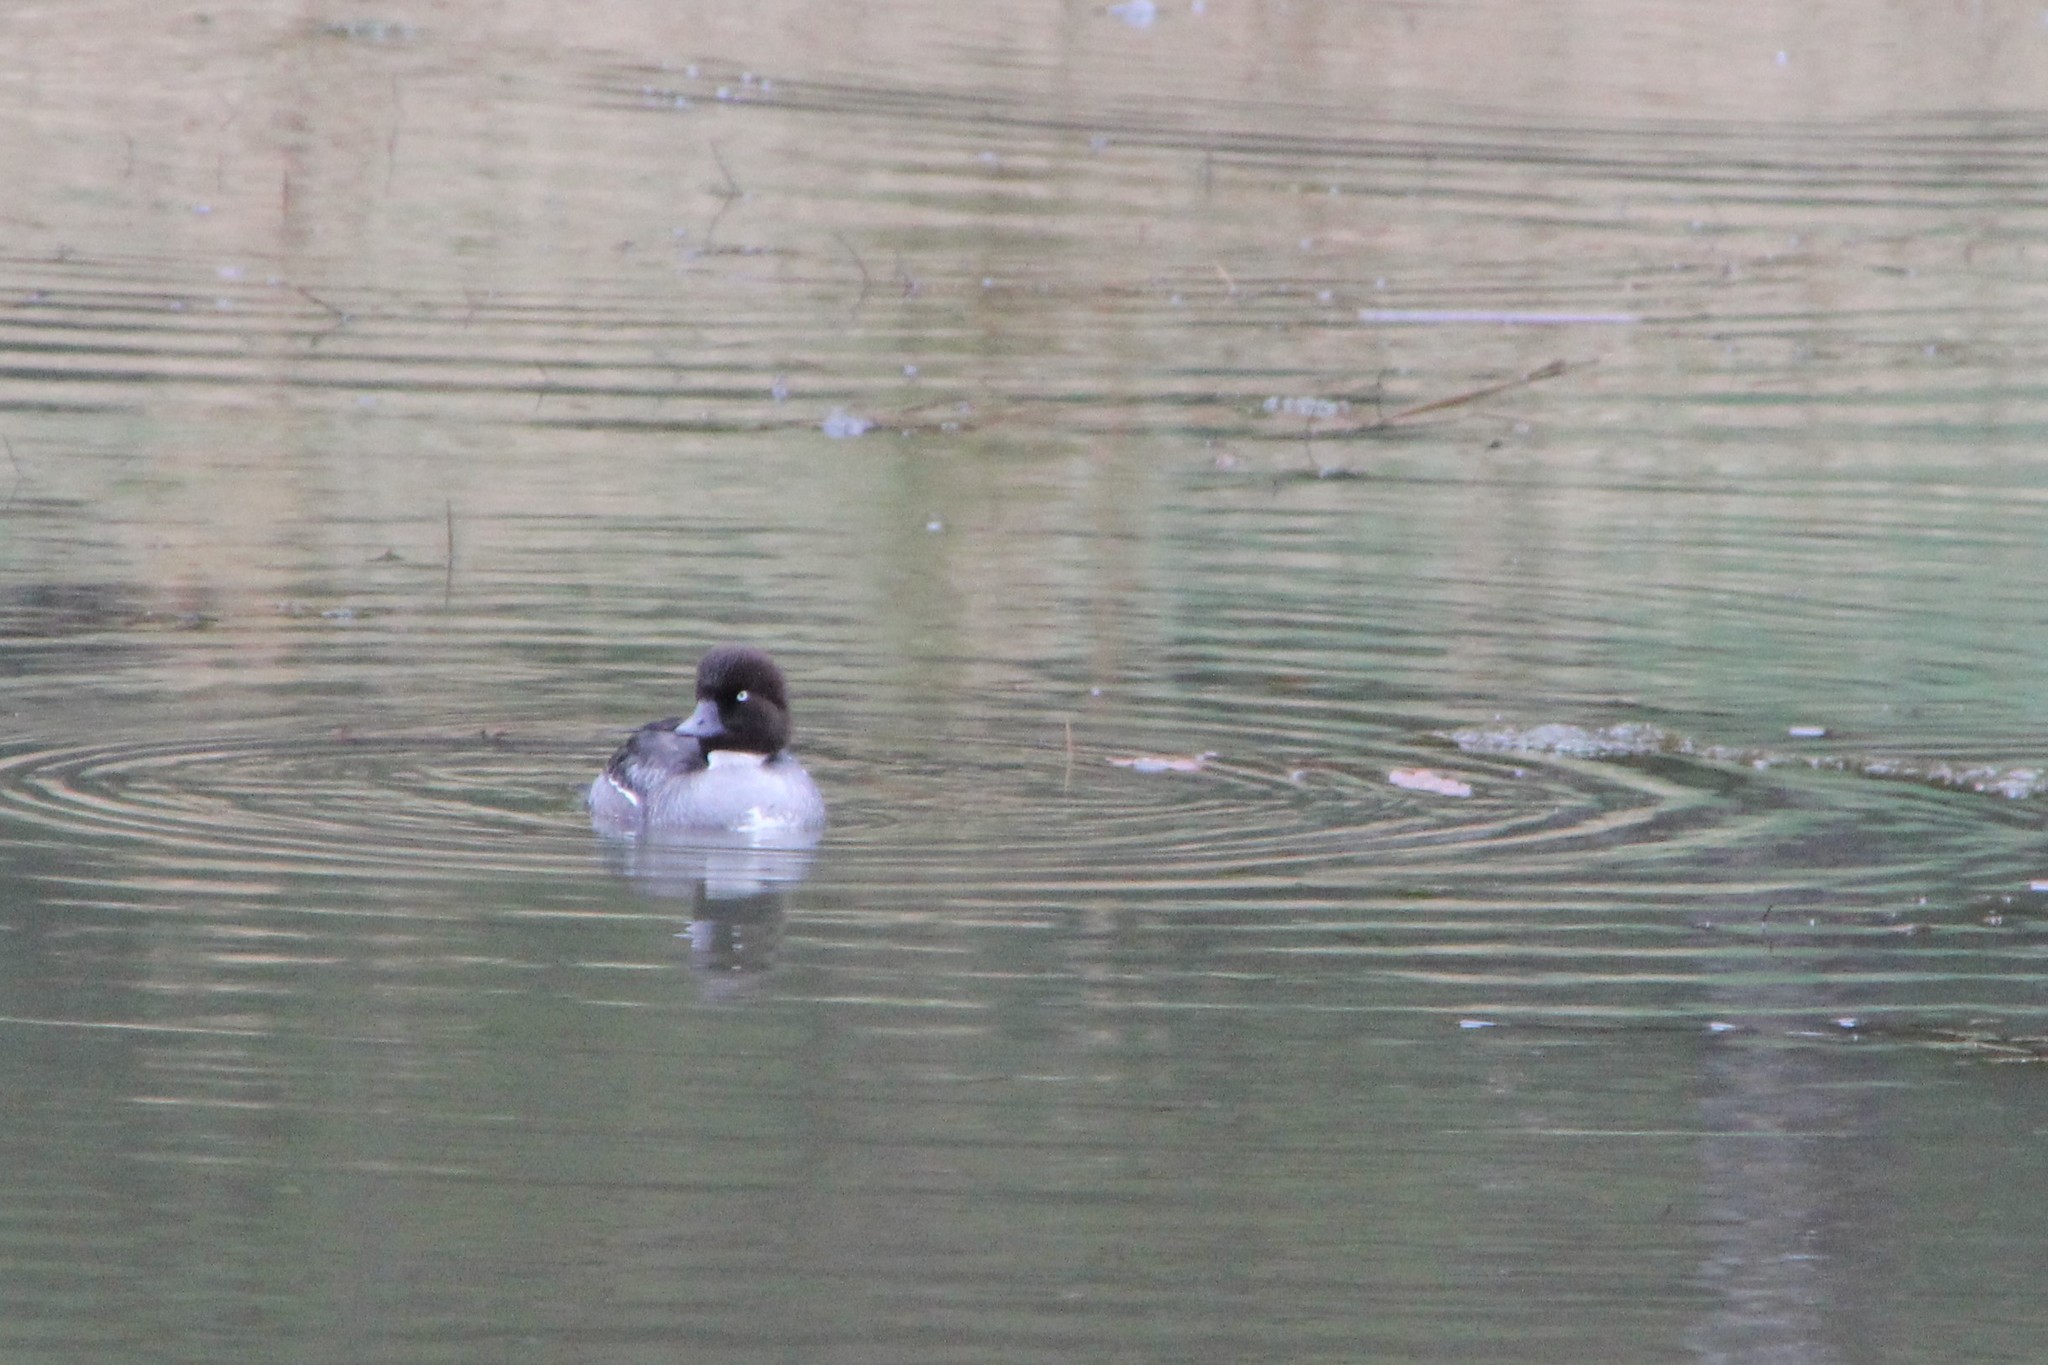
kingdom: Animalia
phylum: Chordata
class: Aves
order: Anseriformes
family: Anatidae
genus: Bucephala
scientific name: Bucephala clangula
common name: Common goldeneye
